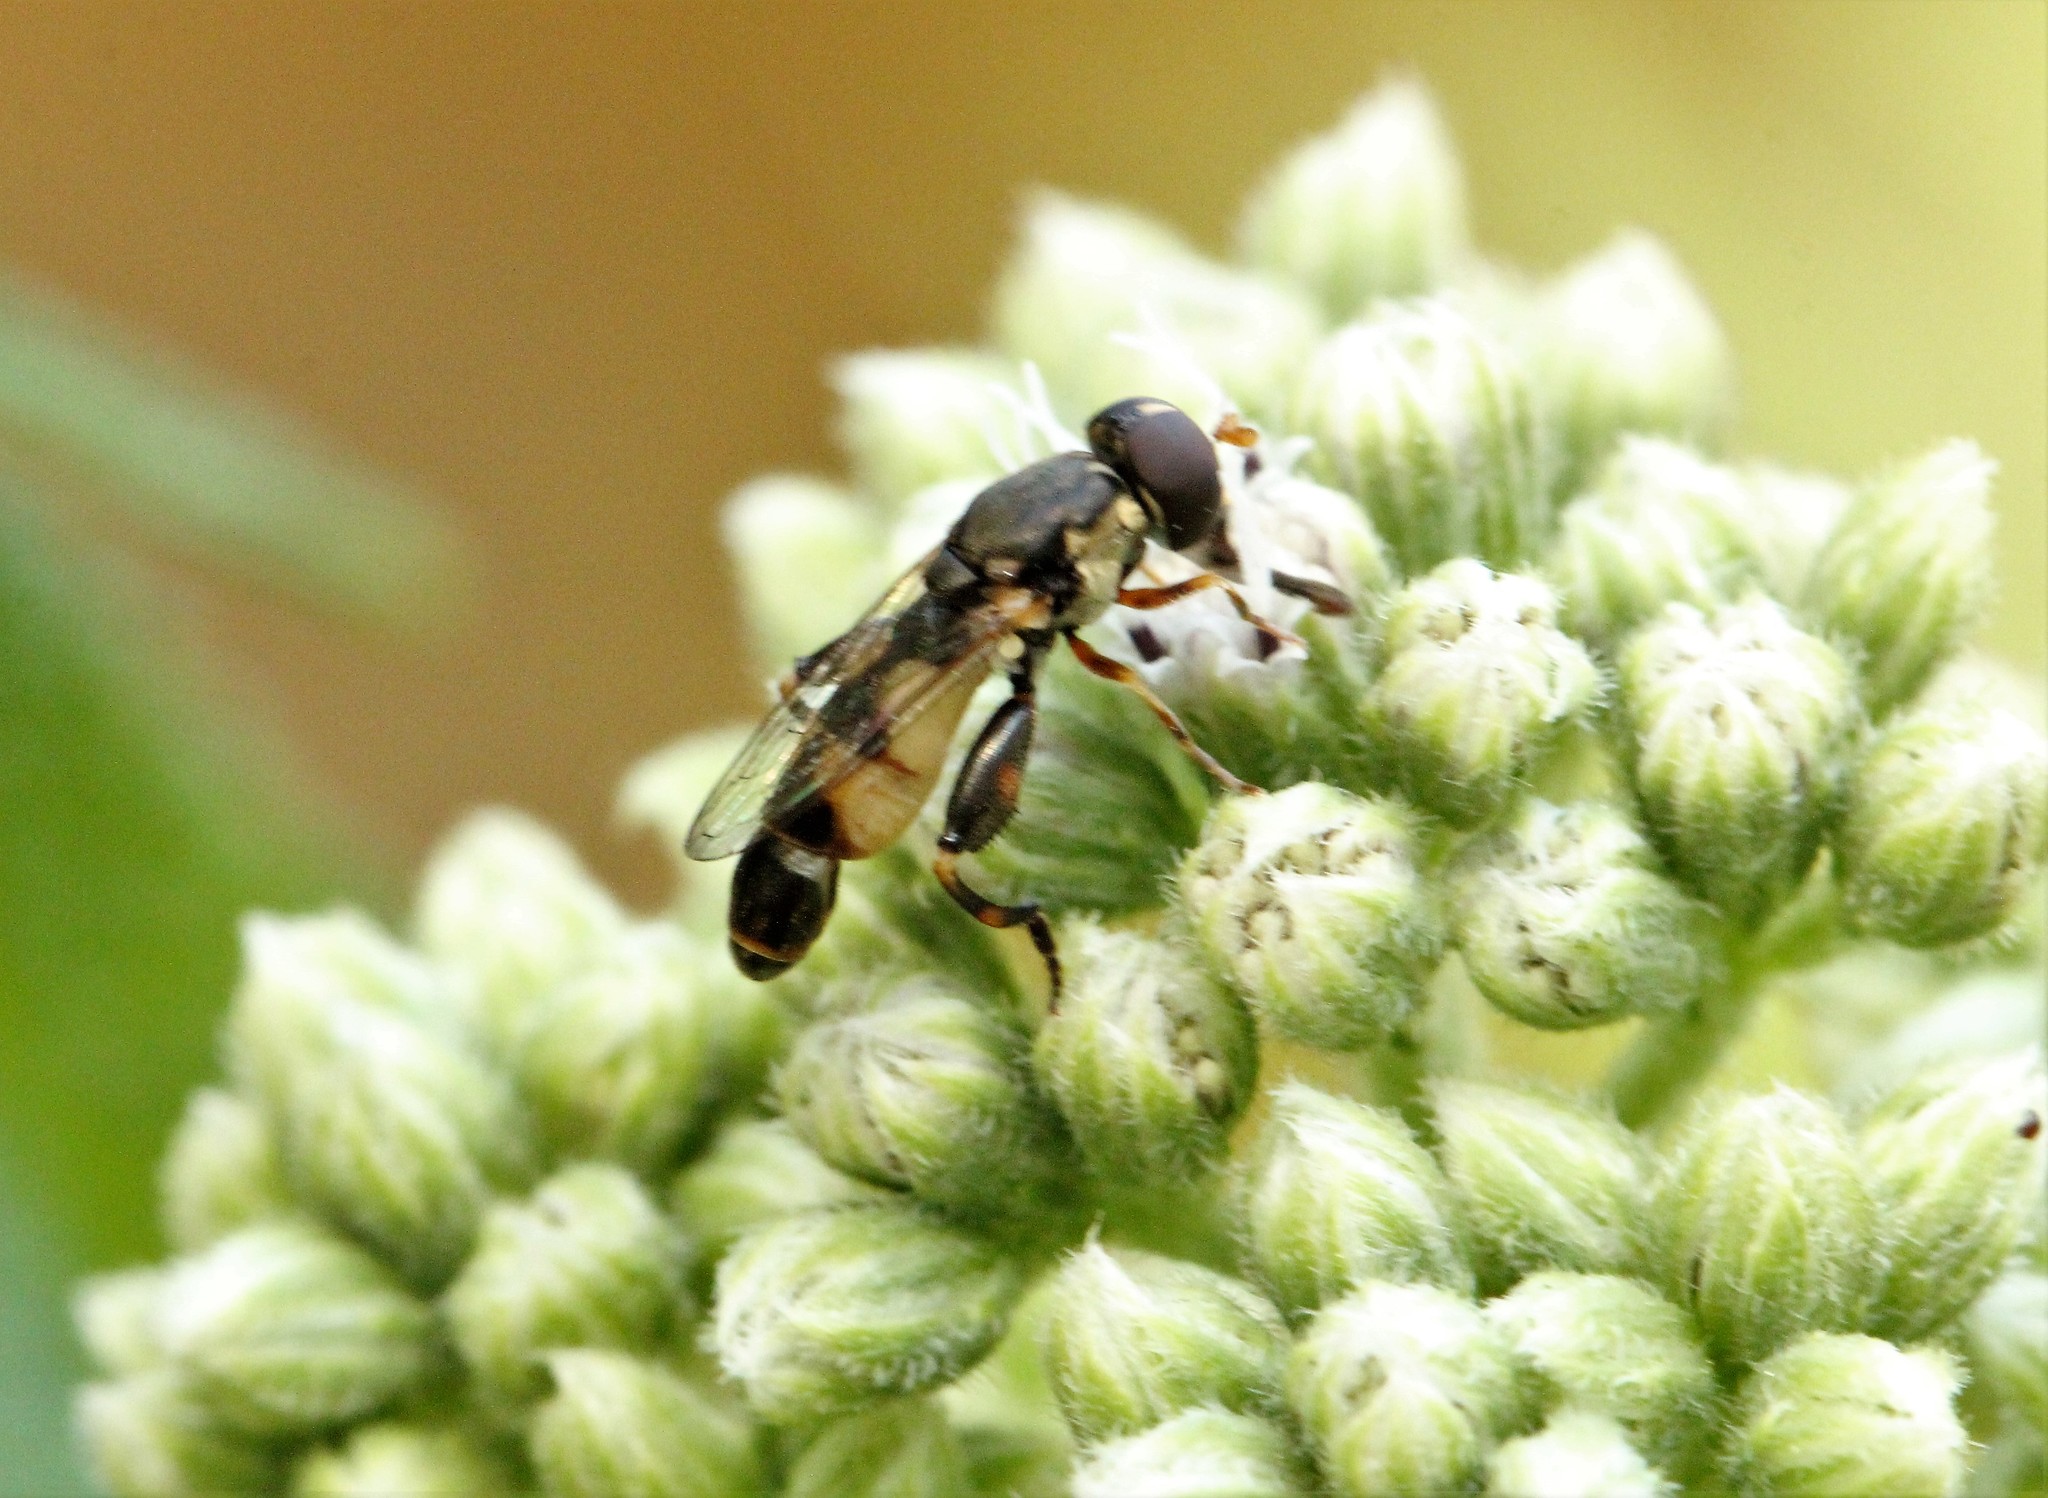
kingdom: Animalia
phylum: Arthropoda
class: Insecta
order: Diptera
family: Syrphidae
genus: Syritta
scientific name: Syritta pipiens
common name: Hover fly
